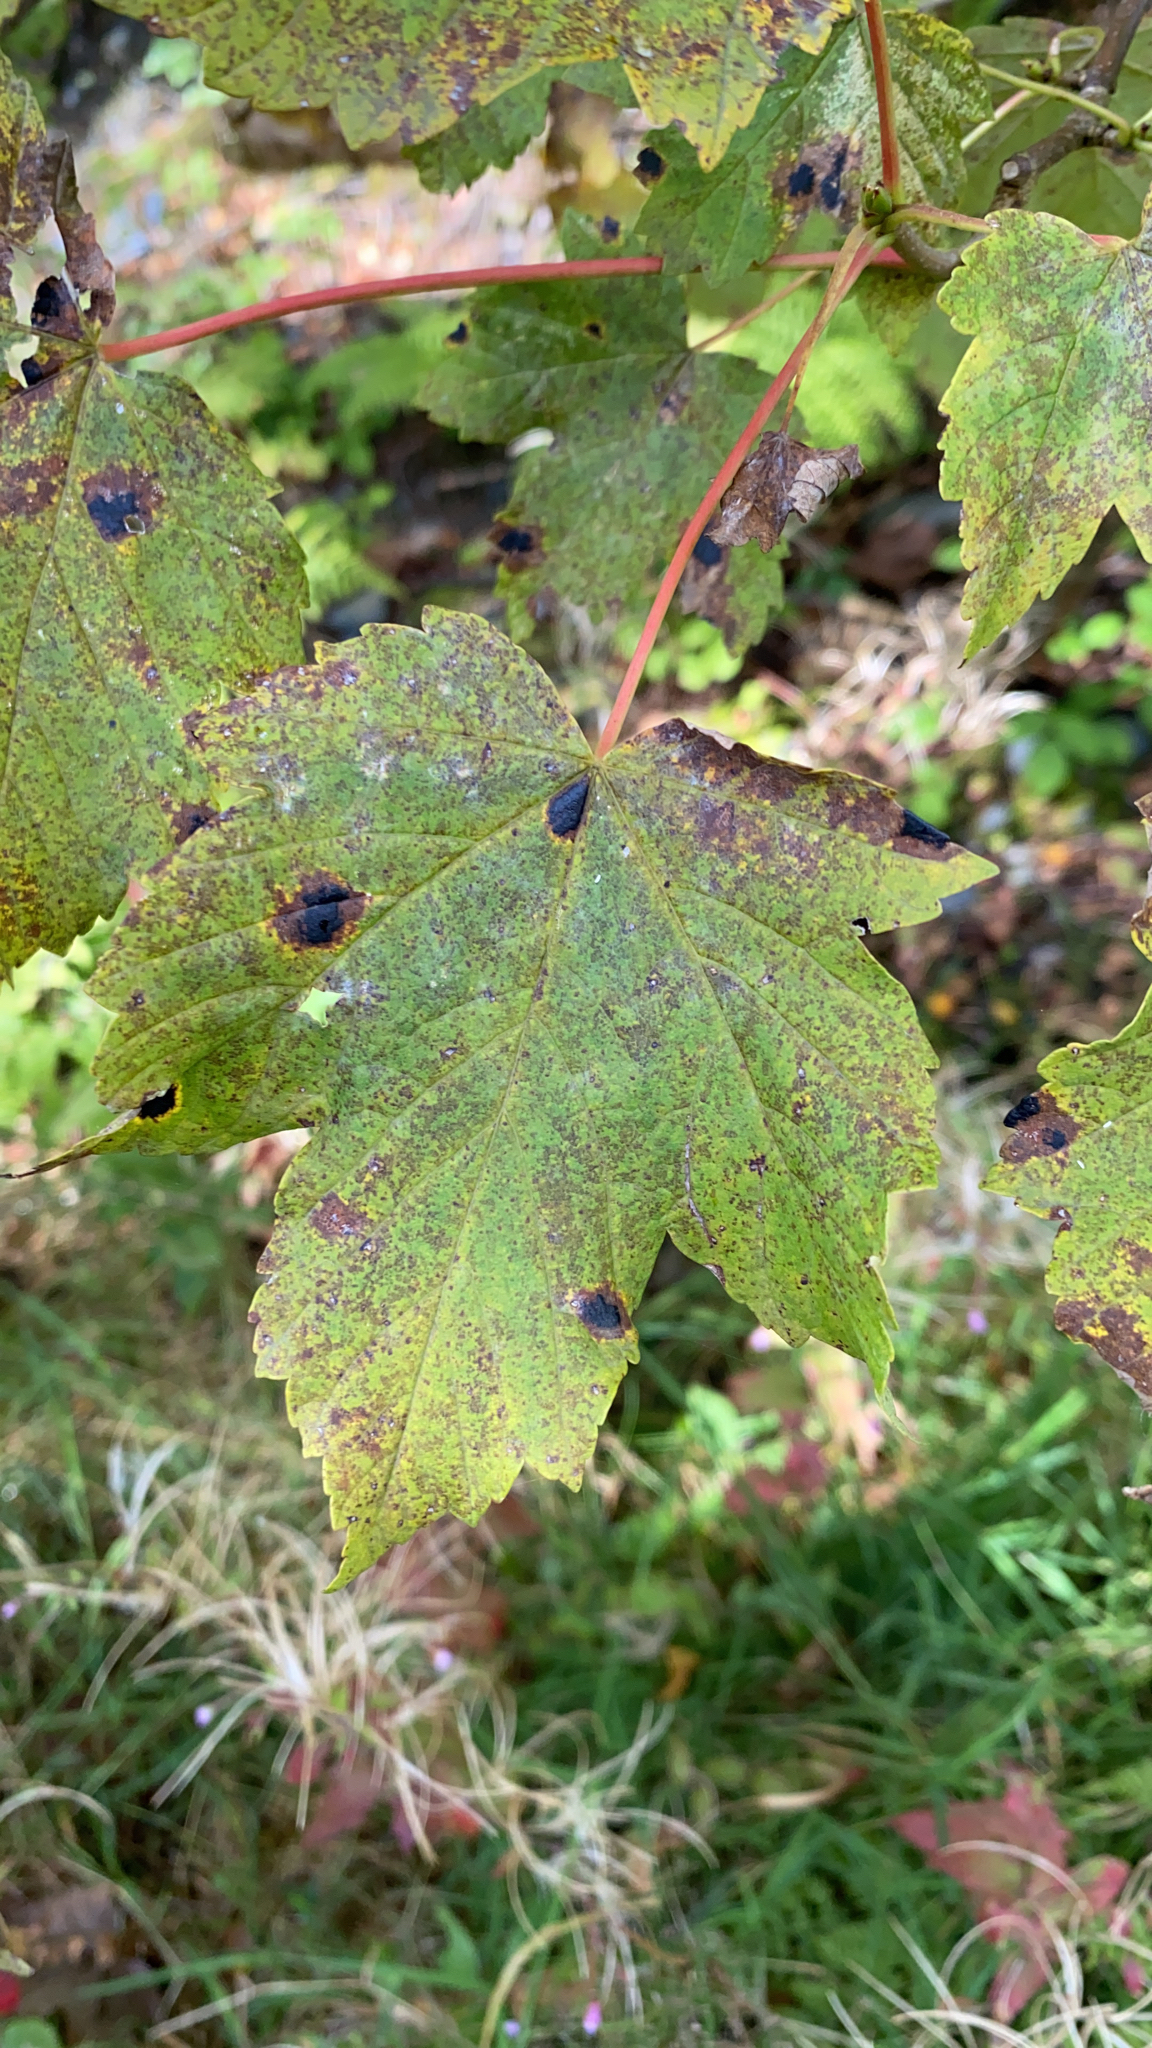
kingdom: Fungi
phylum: Ascomycota
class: Leotiomycetes
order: Rhytismatales
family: Rhytismataceae
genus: Rhytisma
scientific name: Rhytisma acerinum
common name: European tar spot
